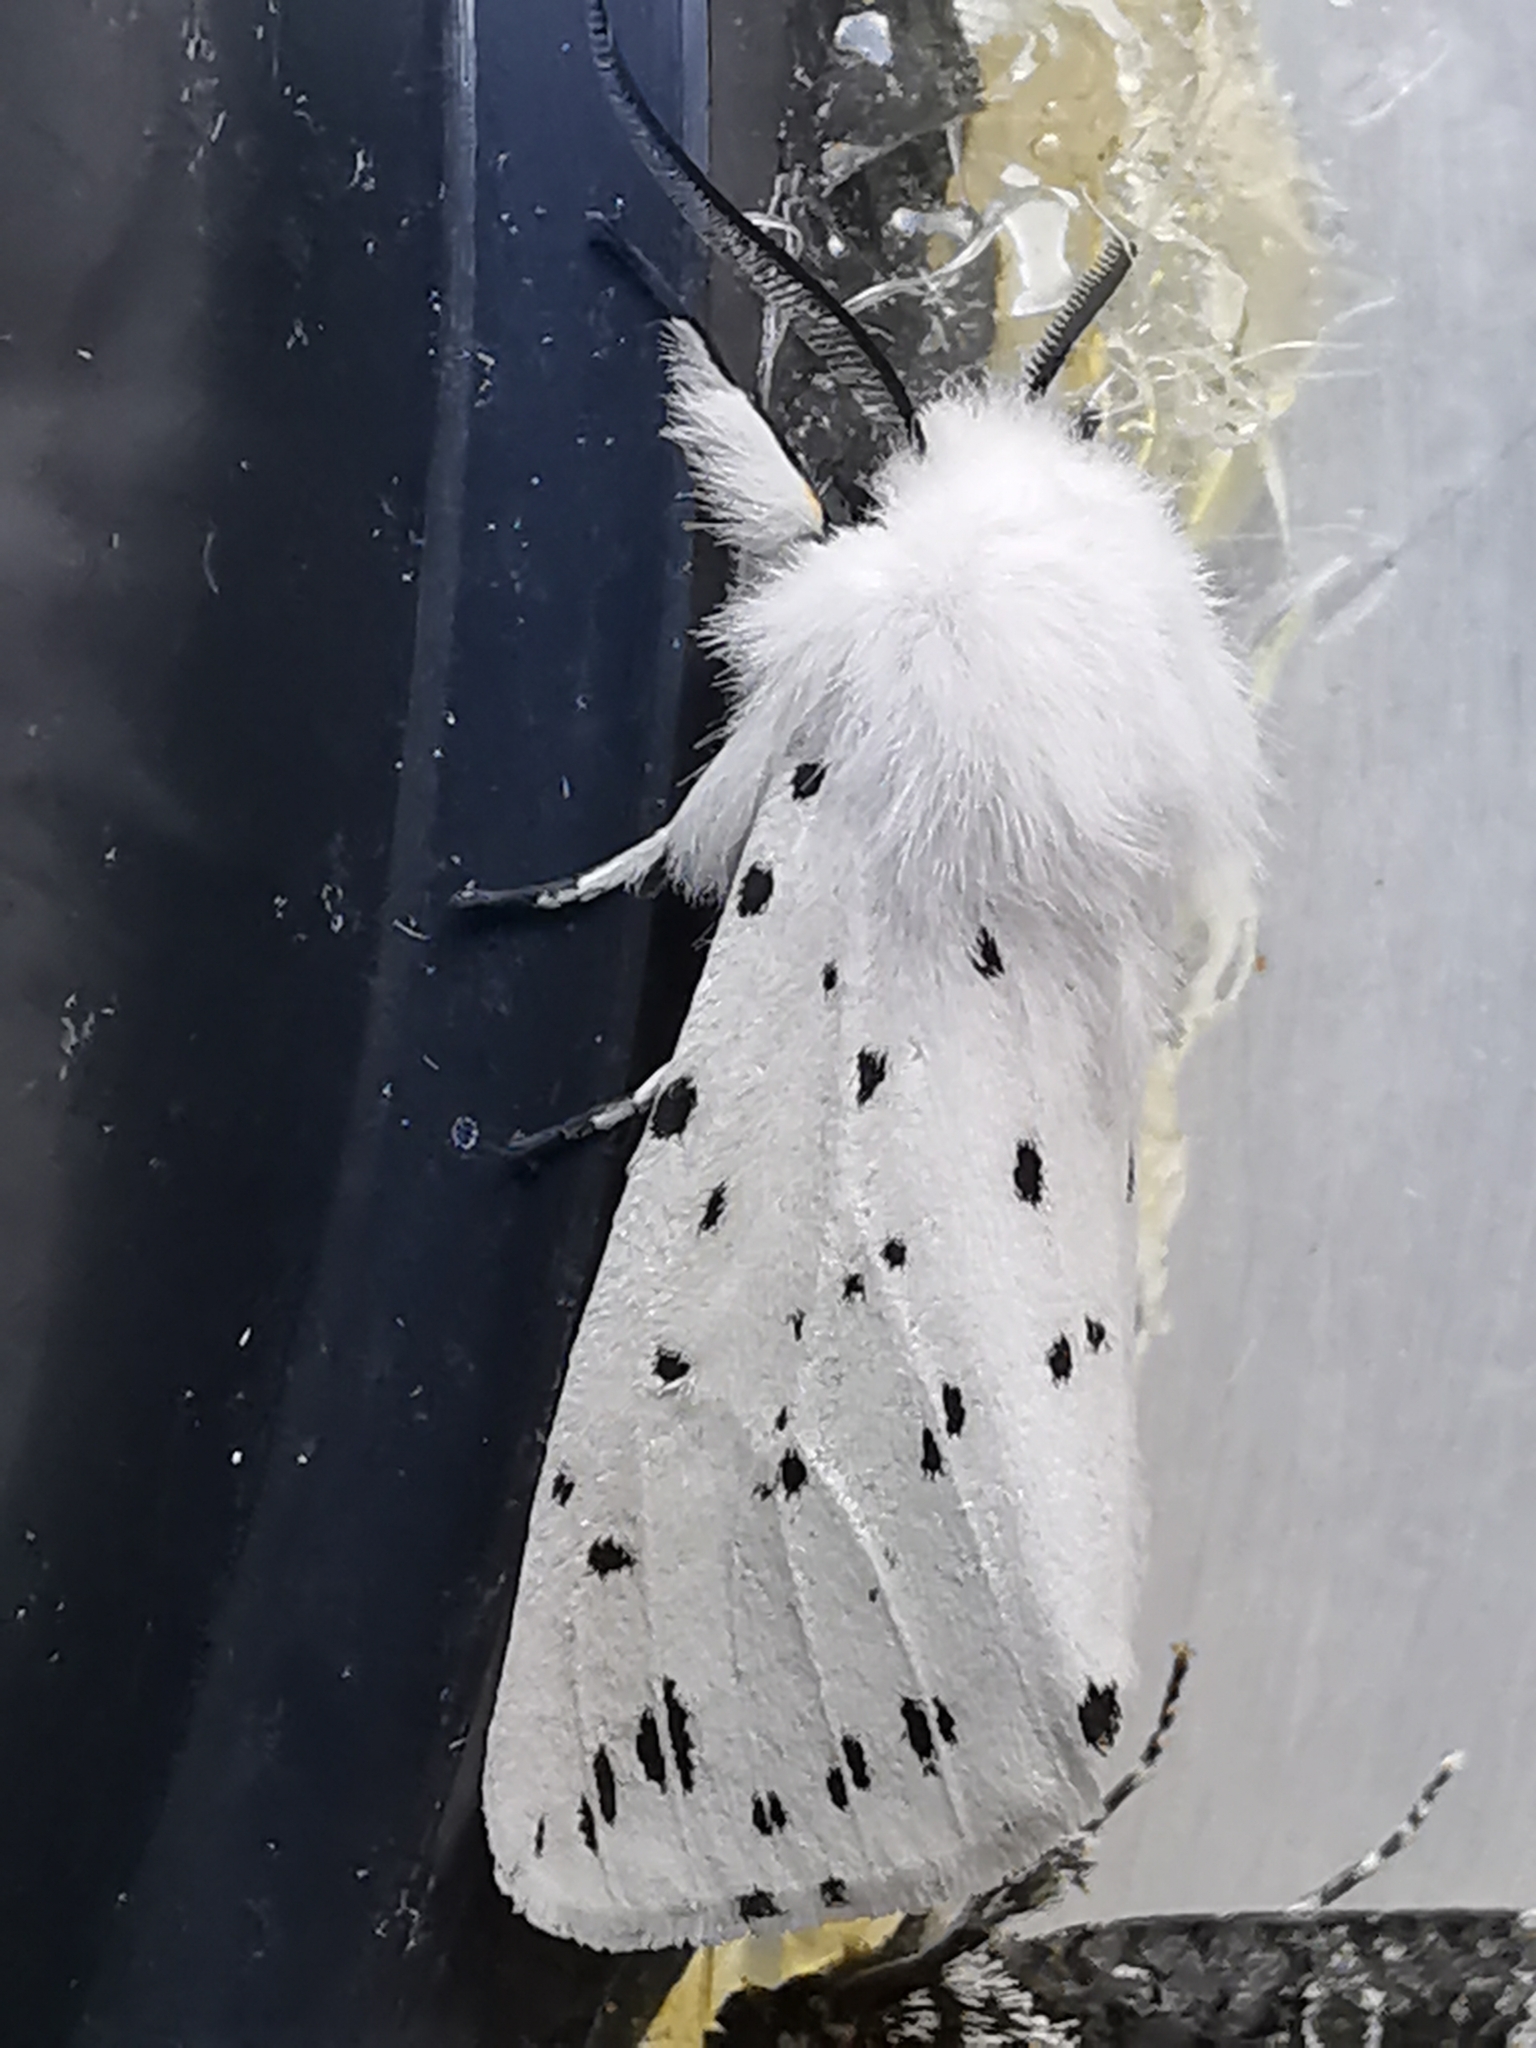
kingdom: Animalia
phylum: Arthropoda
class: Insecta
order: Lepidoptera
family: Erebidae
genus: Spilosoma
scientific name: Spilosoma lubricipeda
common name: White ermine
